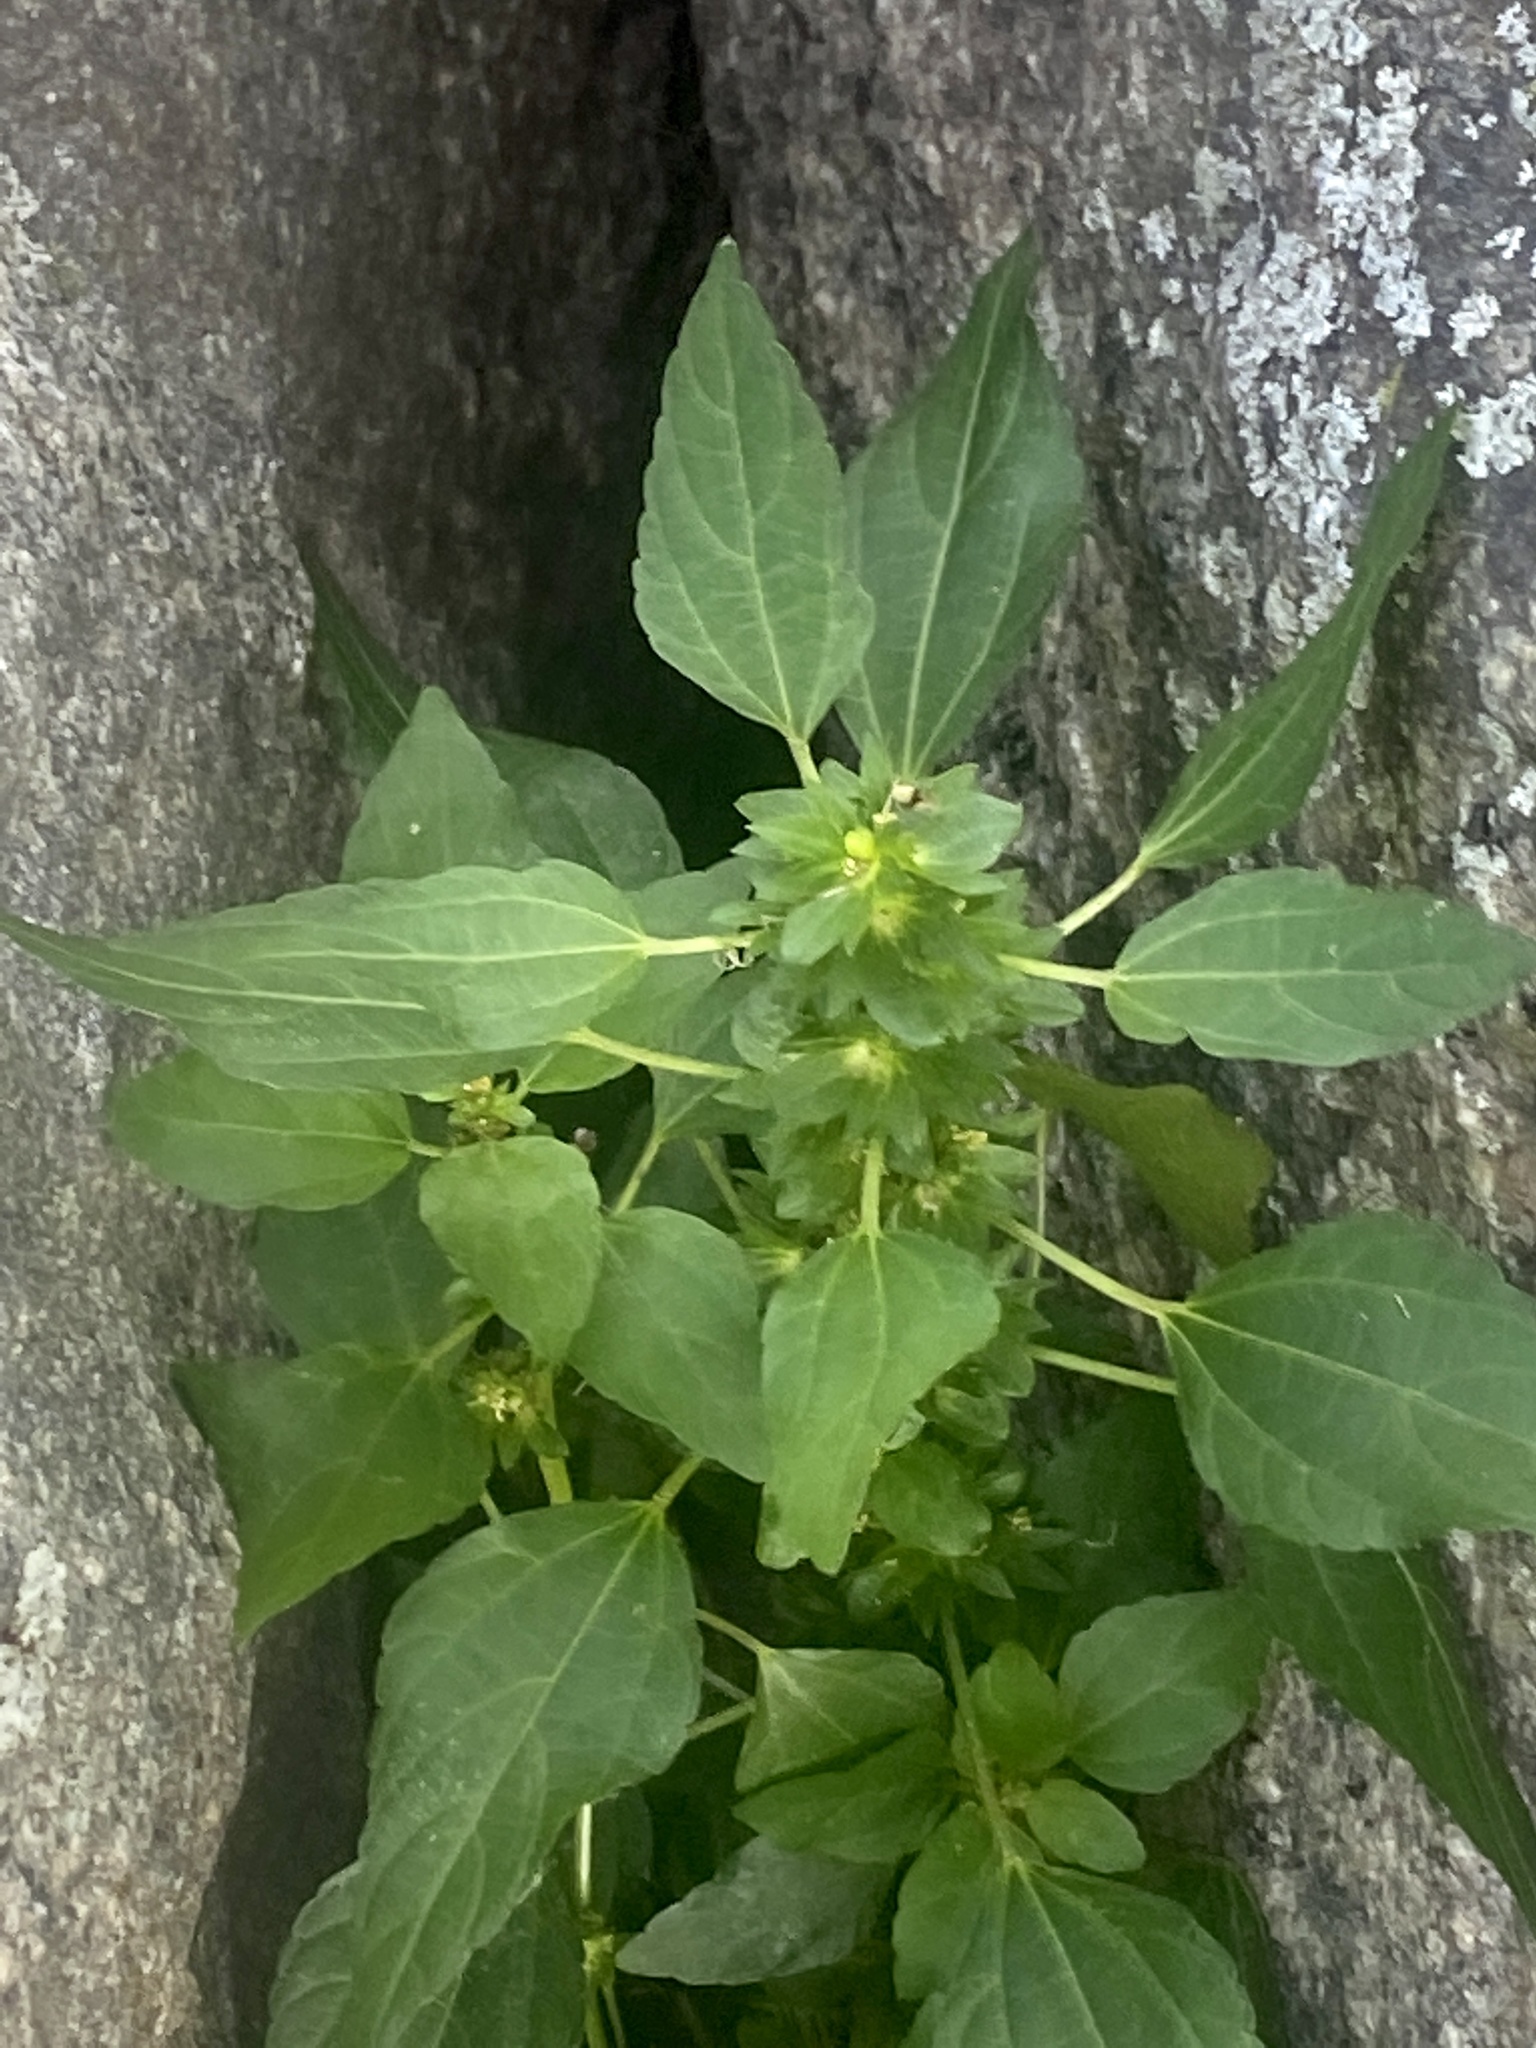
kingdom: Plantae
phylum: Tracheophyta
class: Magnoliopsida
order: Malpighiales
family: Euphorbiaceae
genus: Acalypha
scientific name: Acalypha rhomboidea
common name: Rhombic copperleaf
